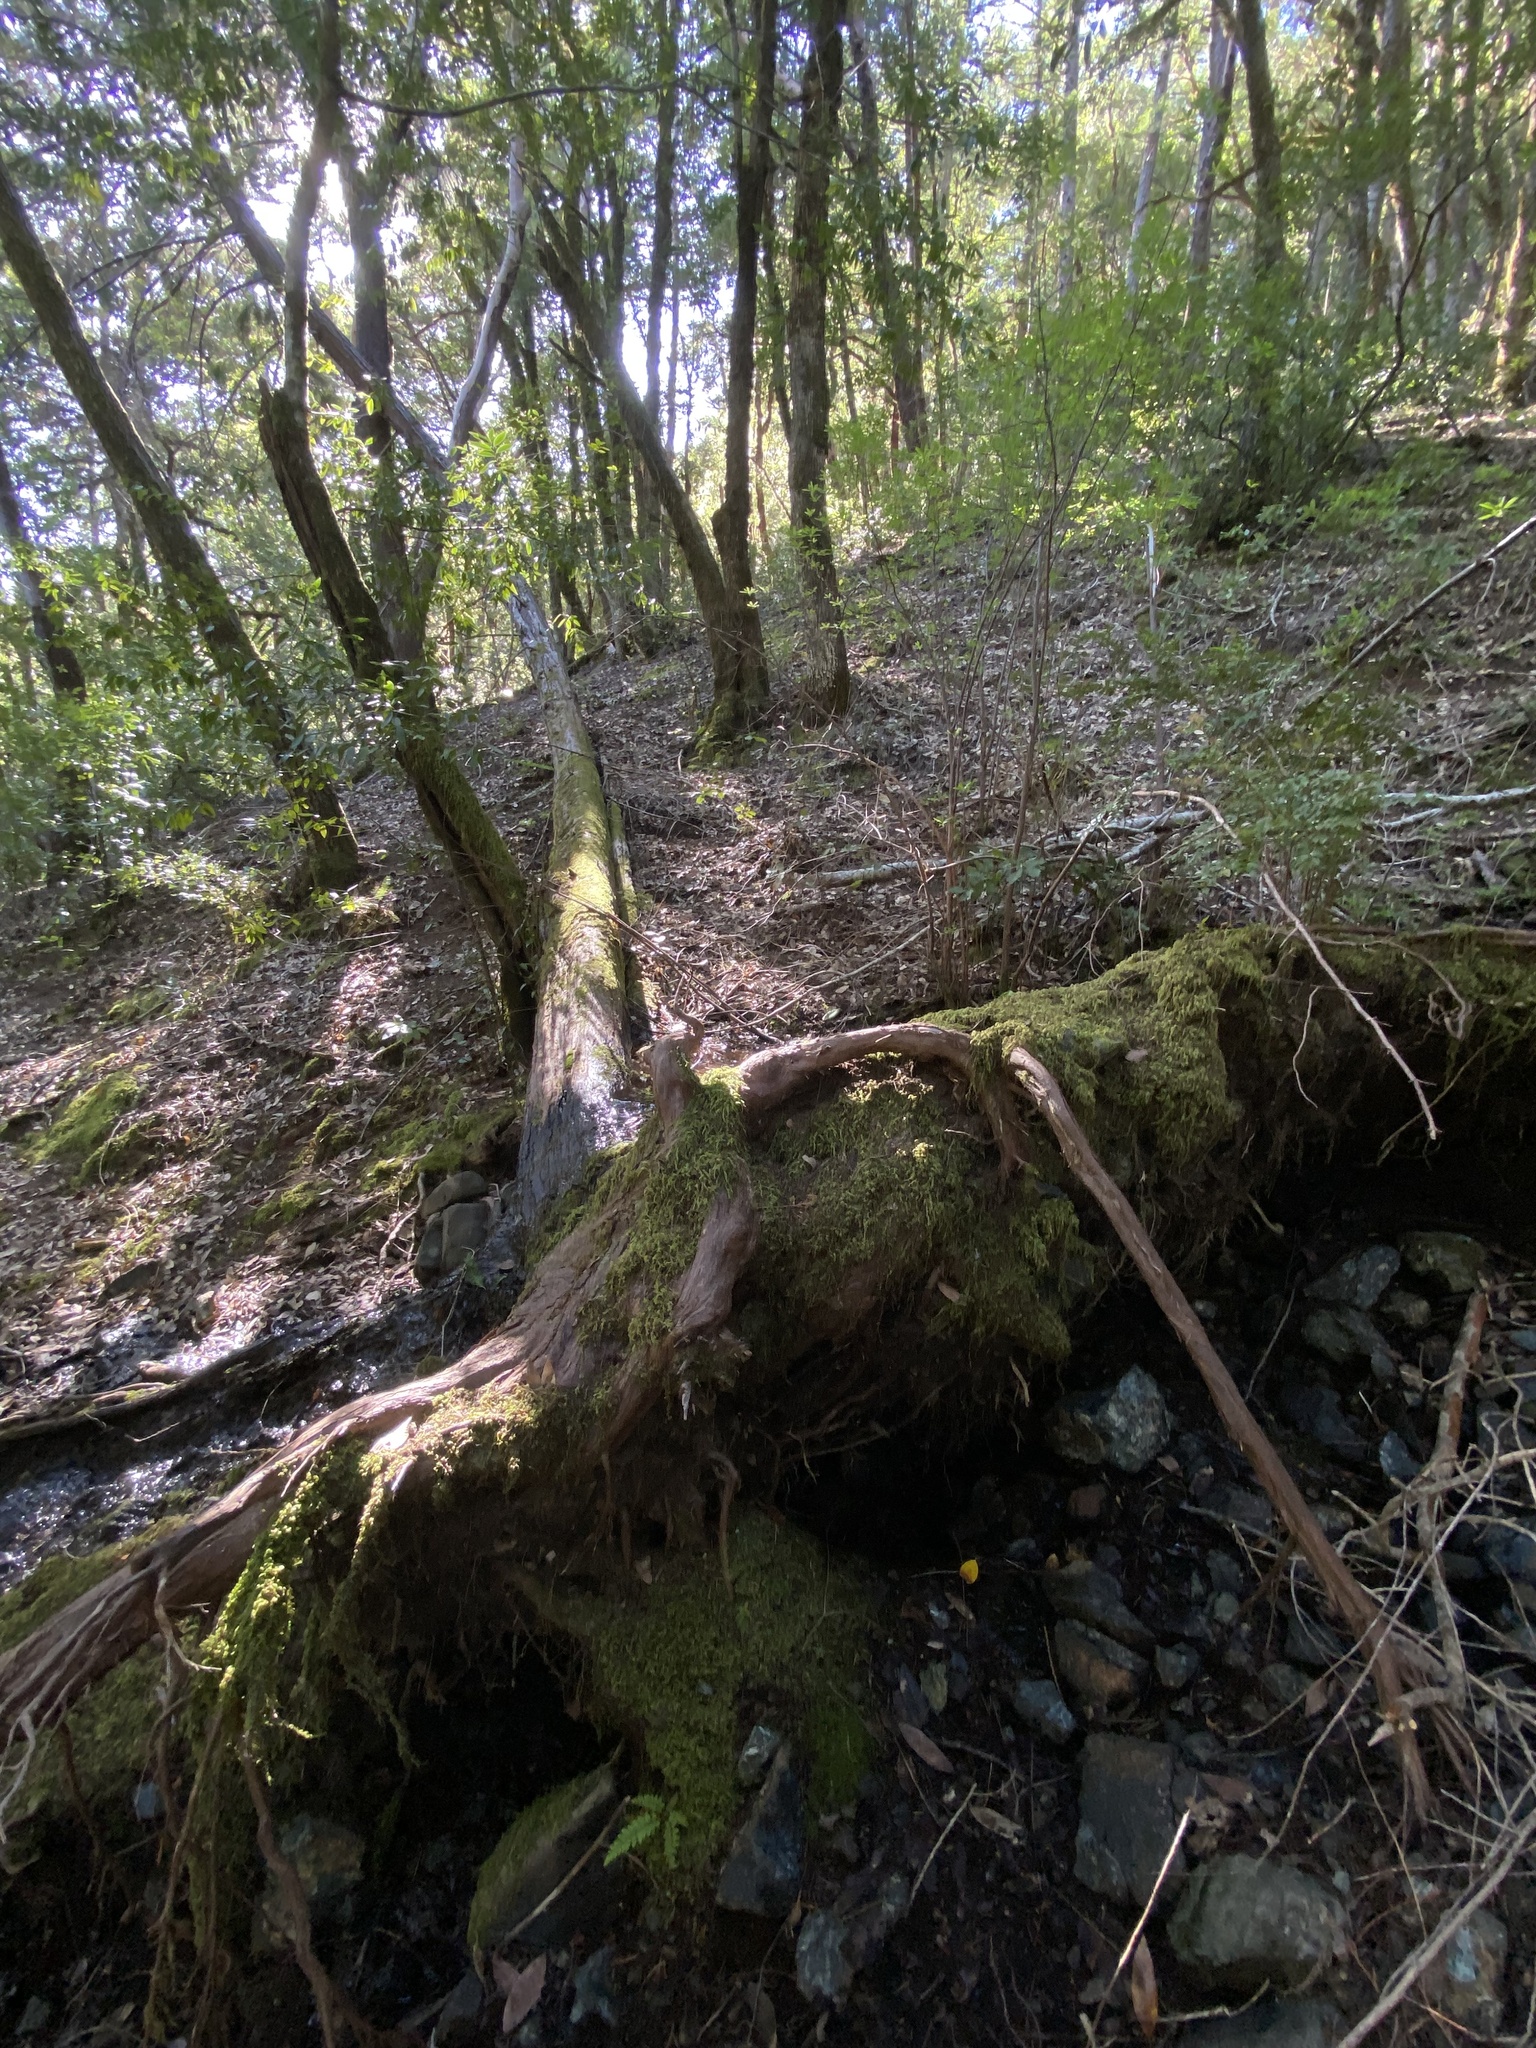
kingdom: Plantae
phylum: Tracheophyta
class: Pinopsida
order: Pinales
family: Cupressaceae
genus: Chamaecyparis
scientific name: Chamaecyparis lawsoniana
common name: Lawson's cypress
